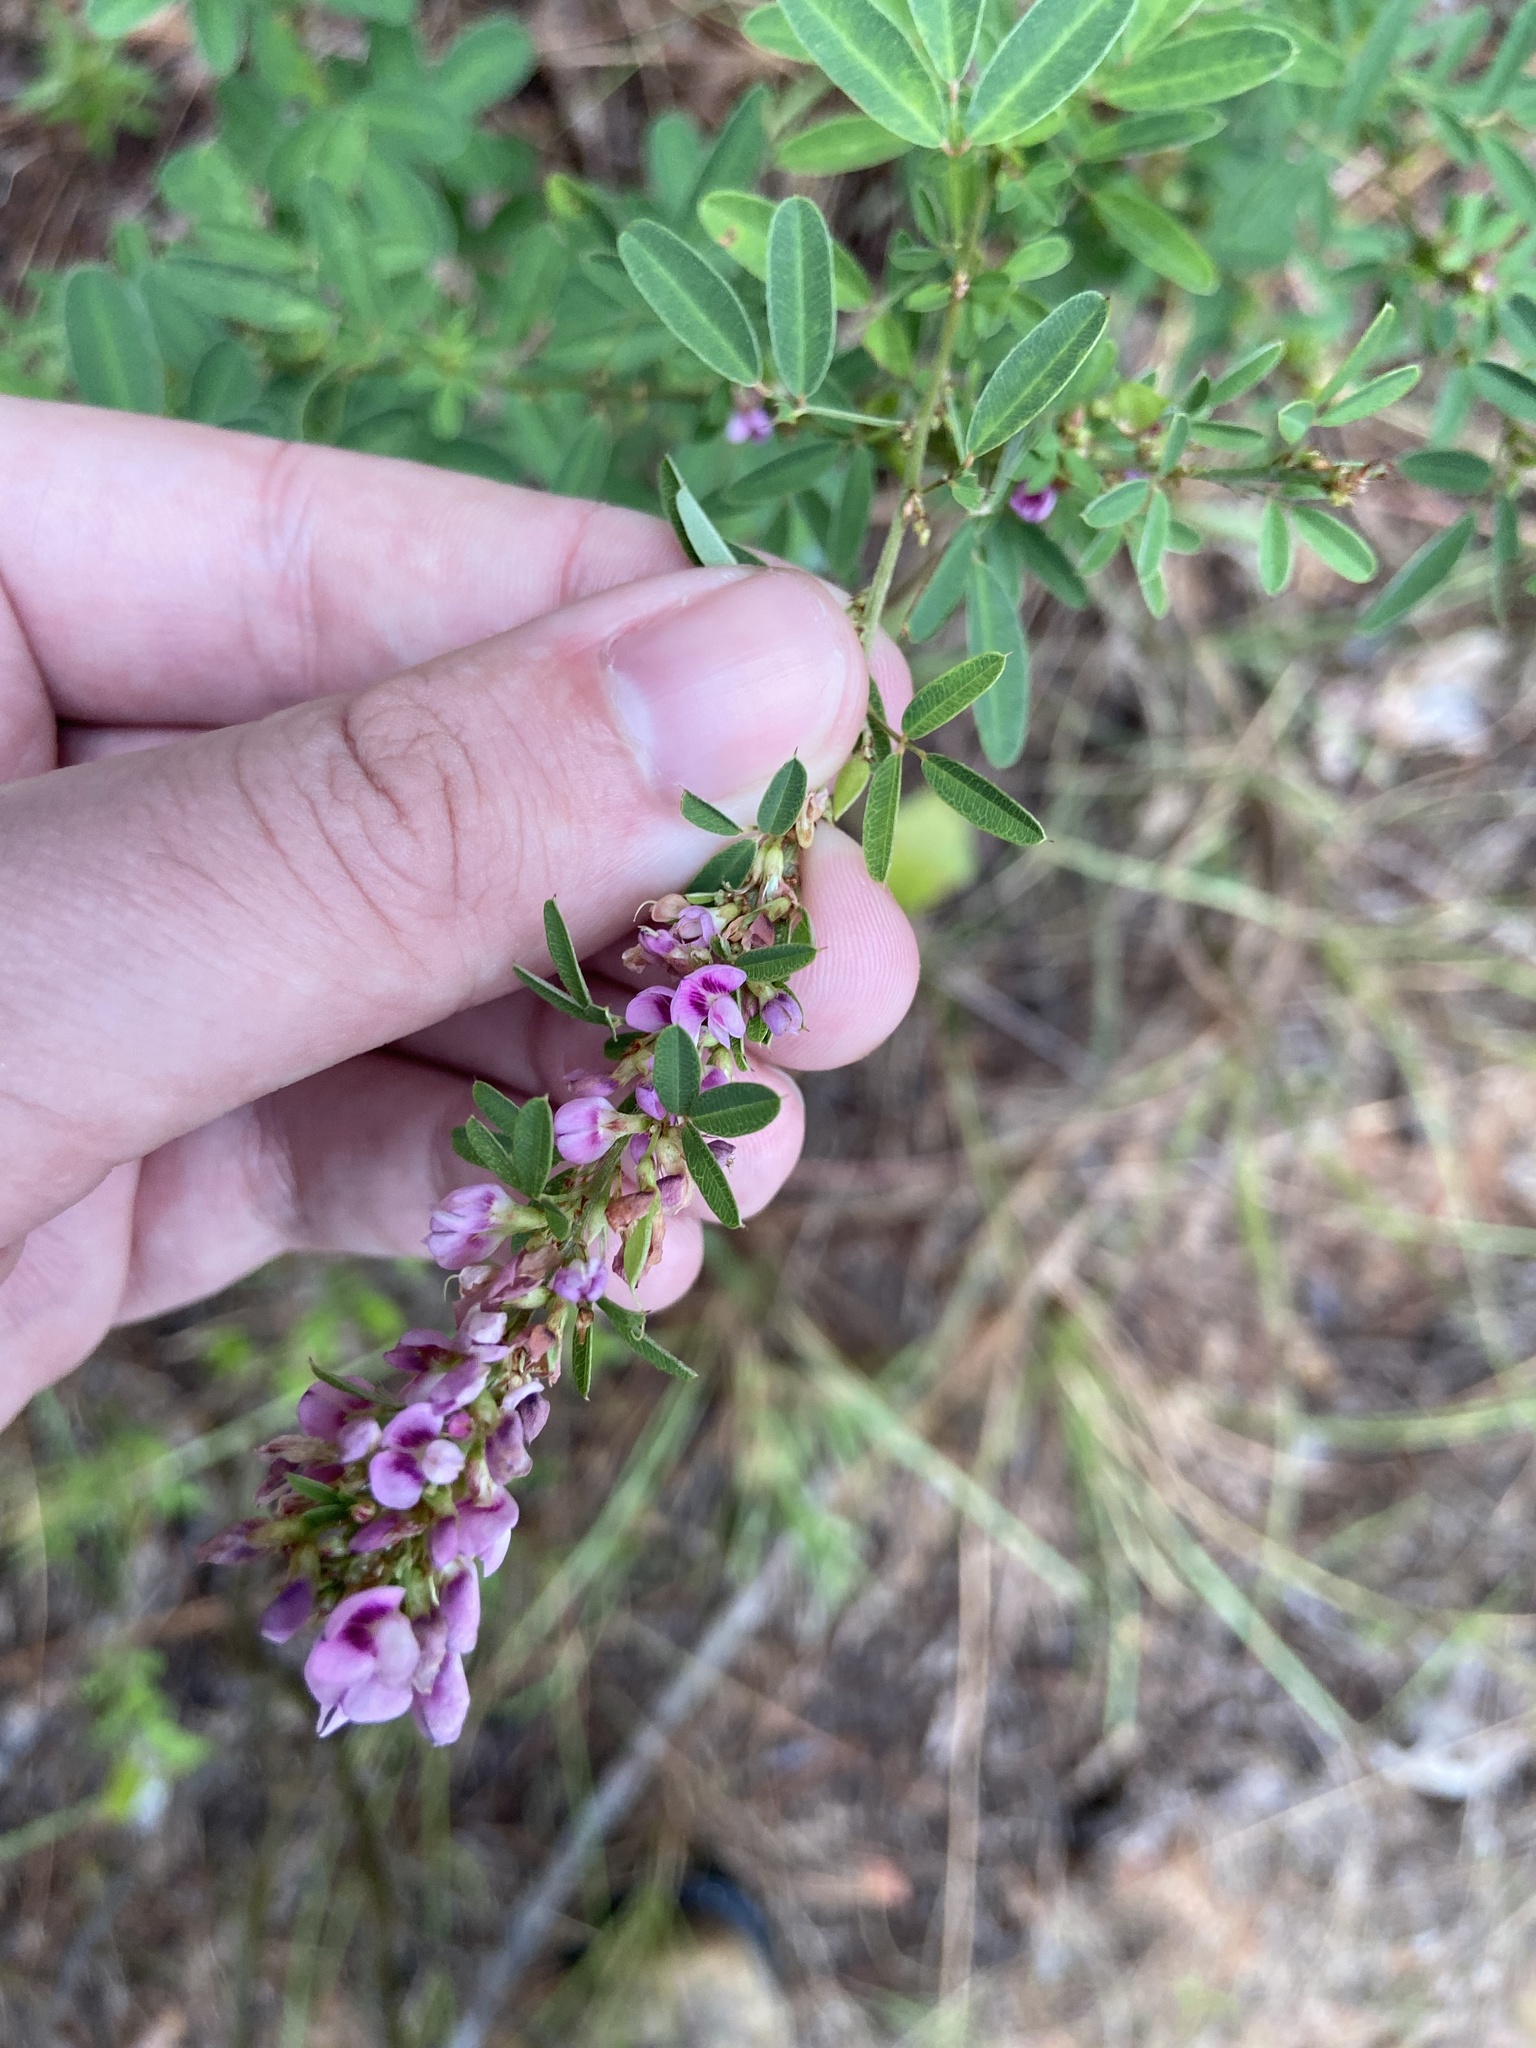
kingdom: Plantae
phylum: Tracheophyta
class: Magnoliopsida
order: Fabales
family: Fabaceae
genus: Lespedeza
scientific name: Lespedeza virginica
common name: Slender bush-clover
